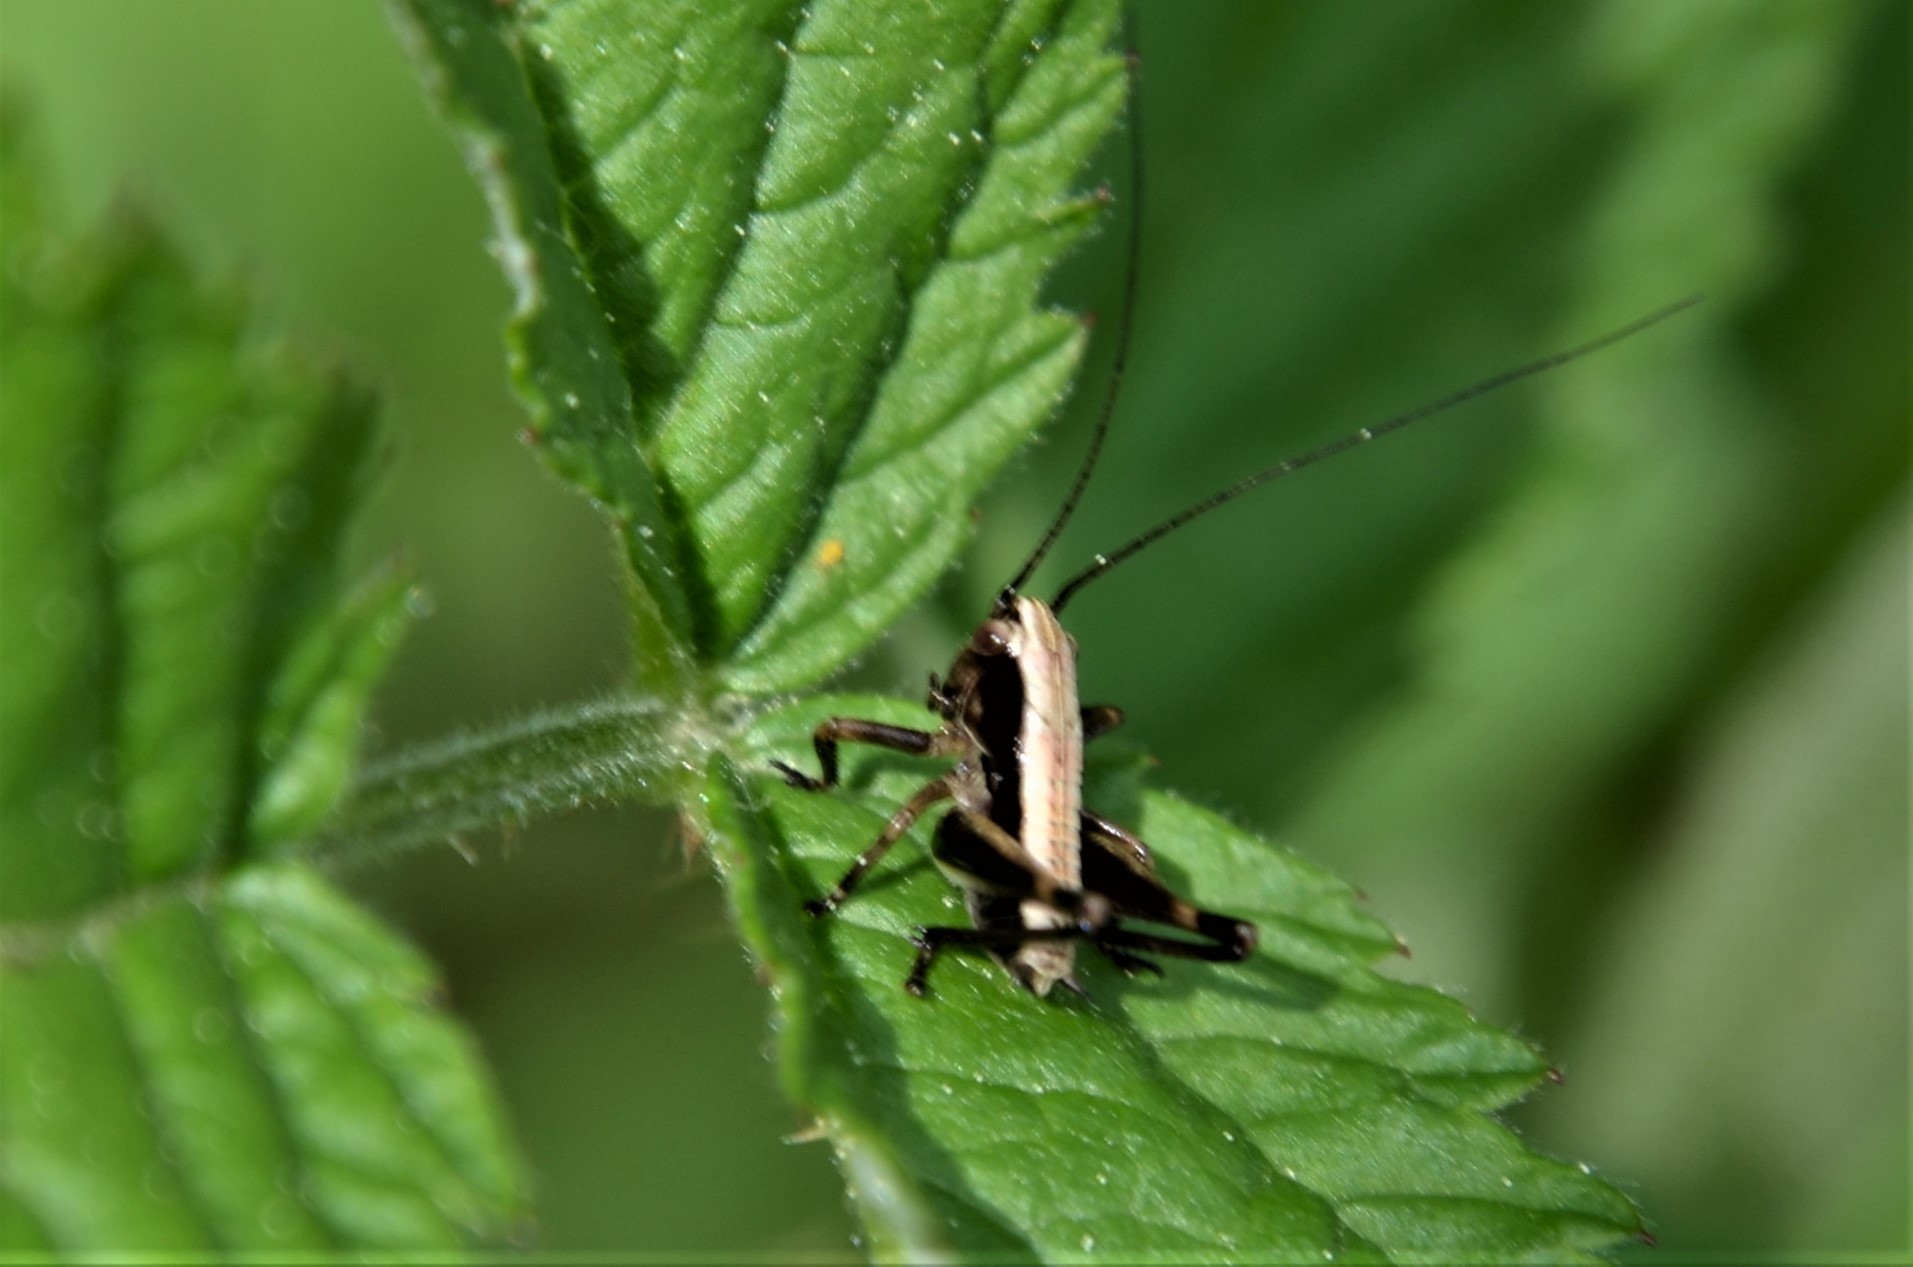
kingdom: Animalia
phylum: Arthropoda
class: Insecta
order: Orthoptera
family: Tettigoniidae
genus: Pholidoptera
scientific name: Pholidoptera griseoaptera
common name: Dark bush-cricket
